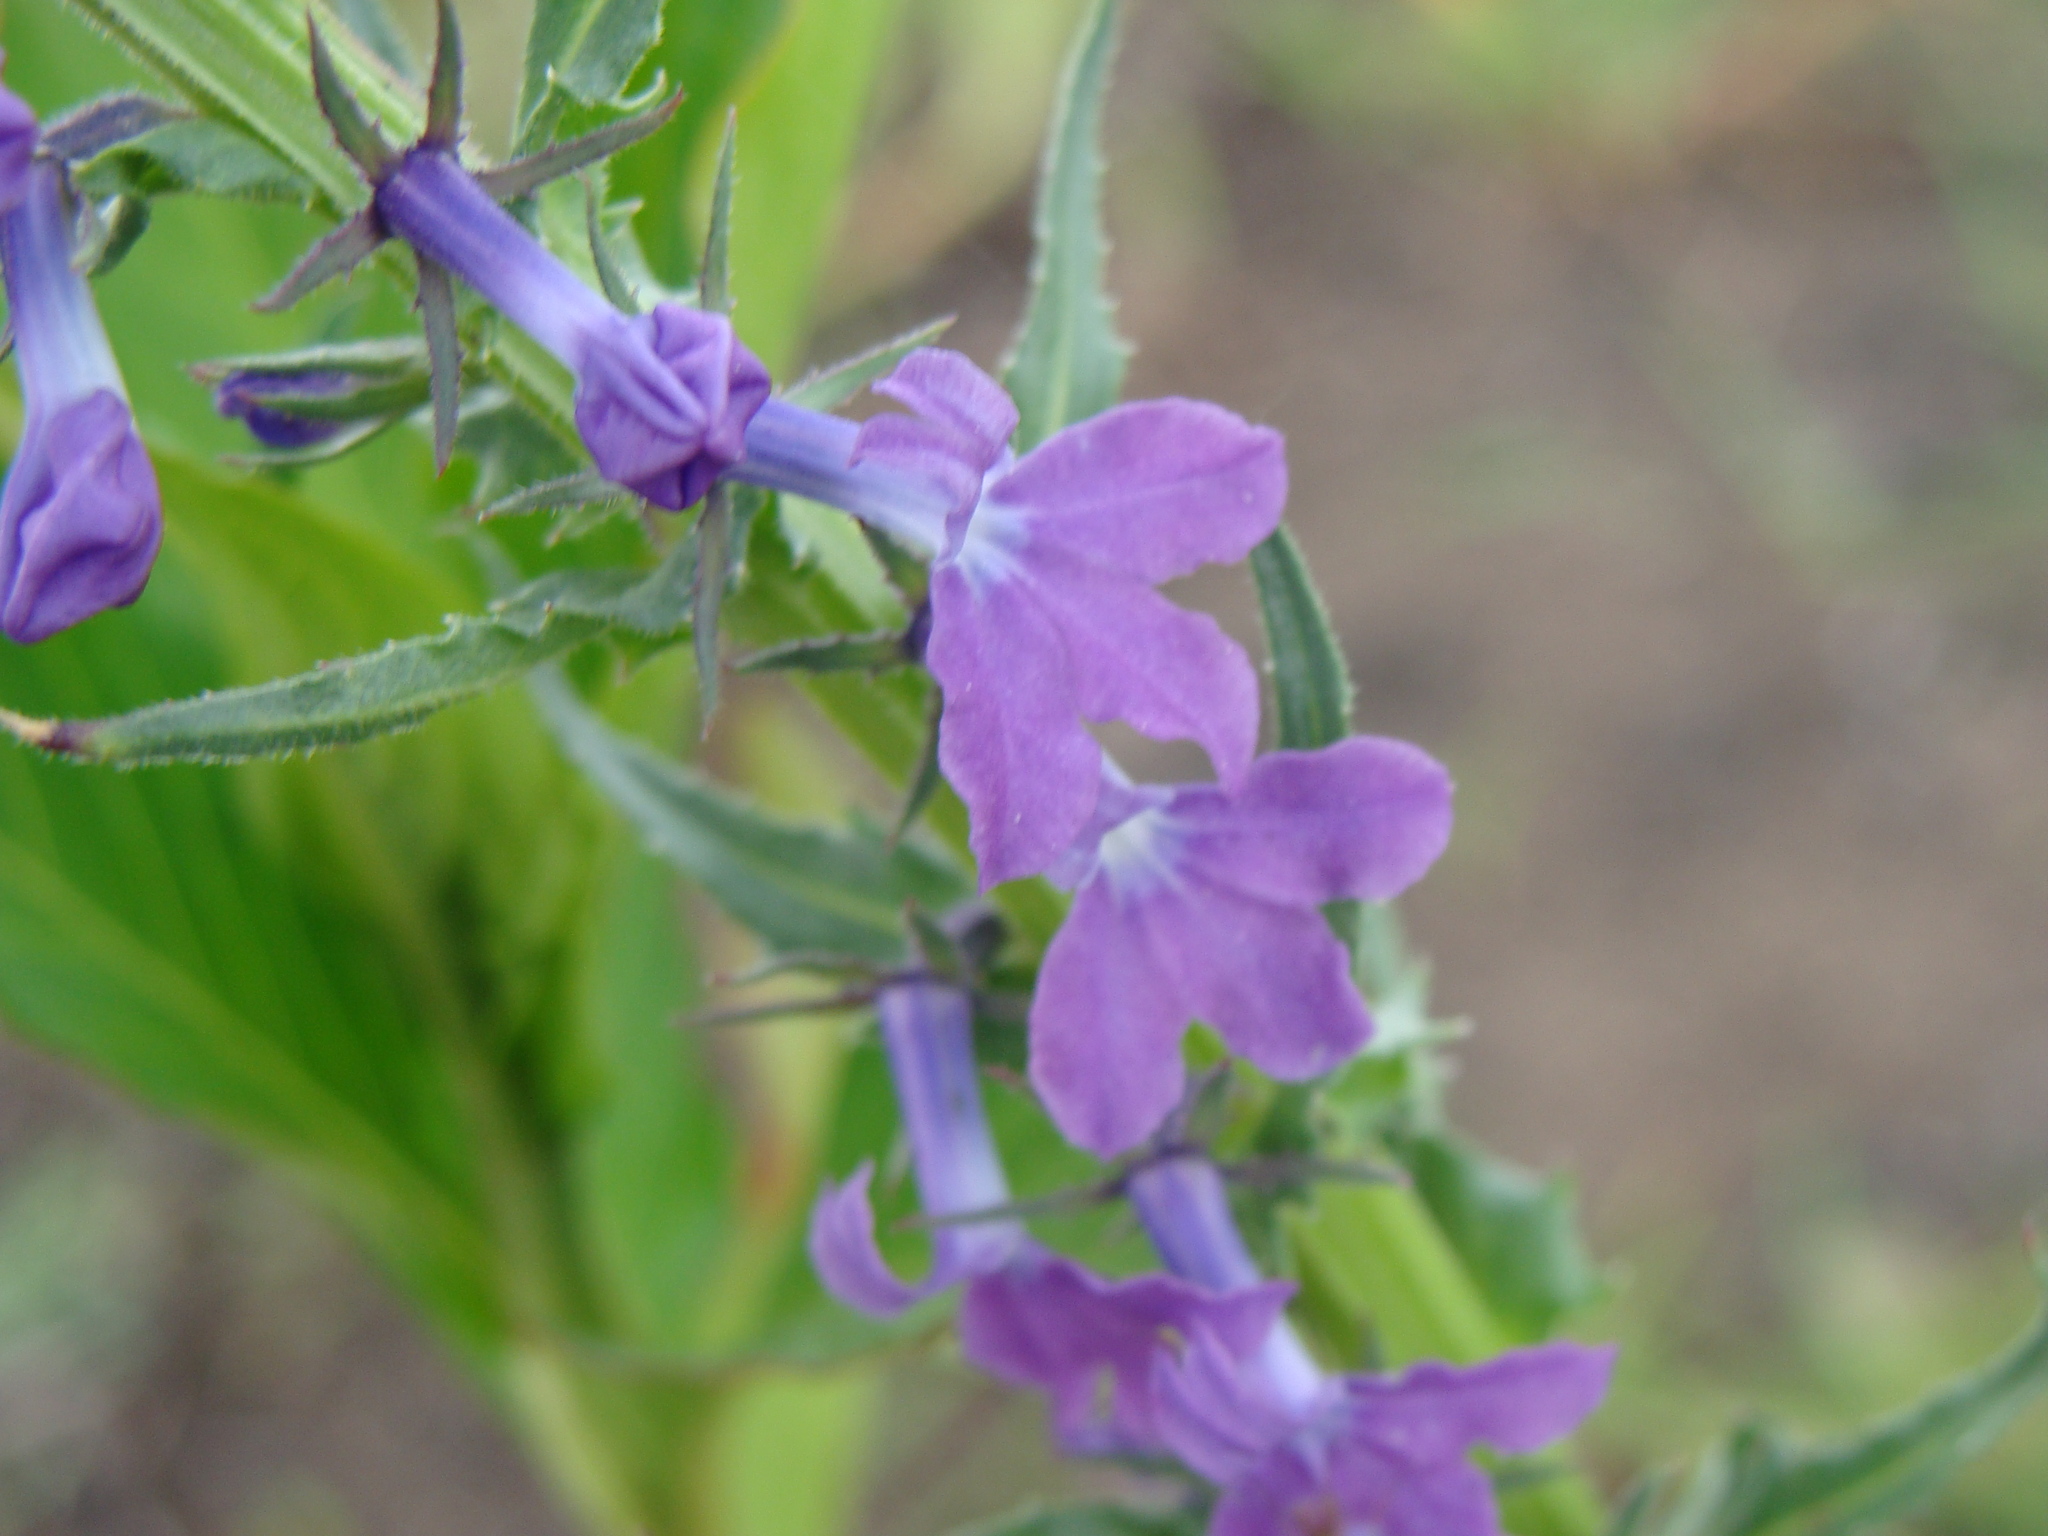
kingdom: Plantae
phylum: Tracheophyta
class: Magnoliopsida
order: Asterales
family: Campanulaceae
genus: Lobelia
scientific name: Lobelia fenestralis
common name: Leafy lobelia
